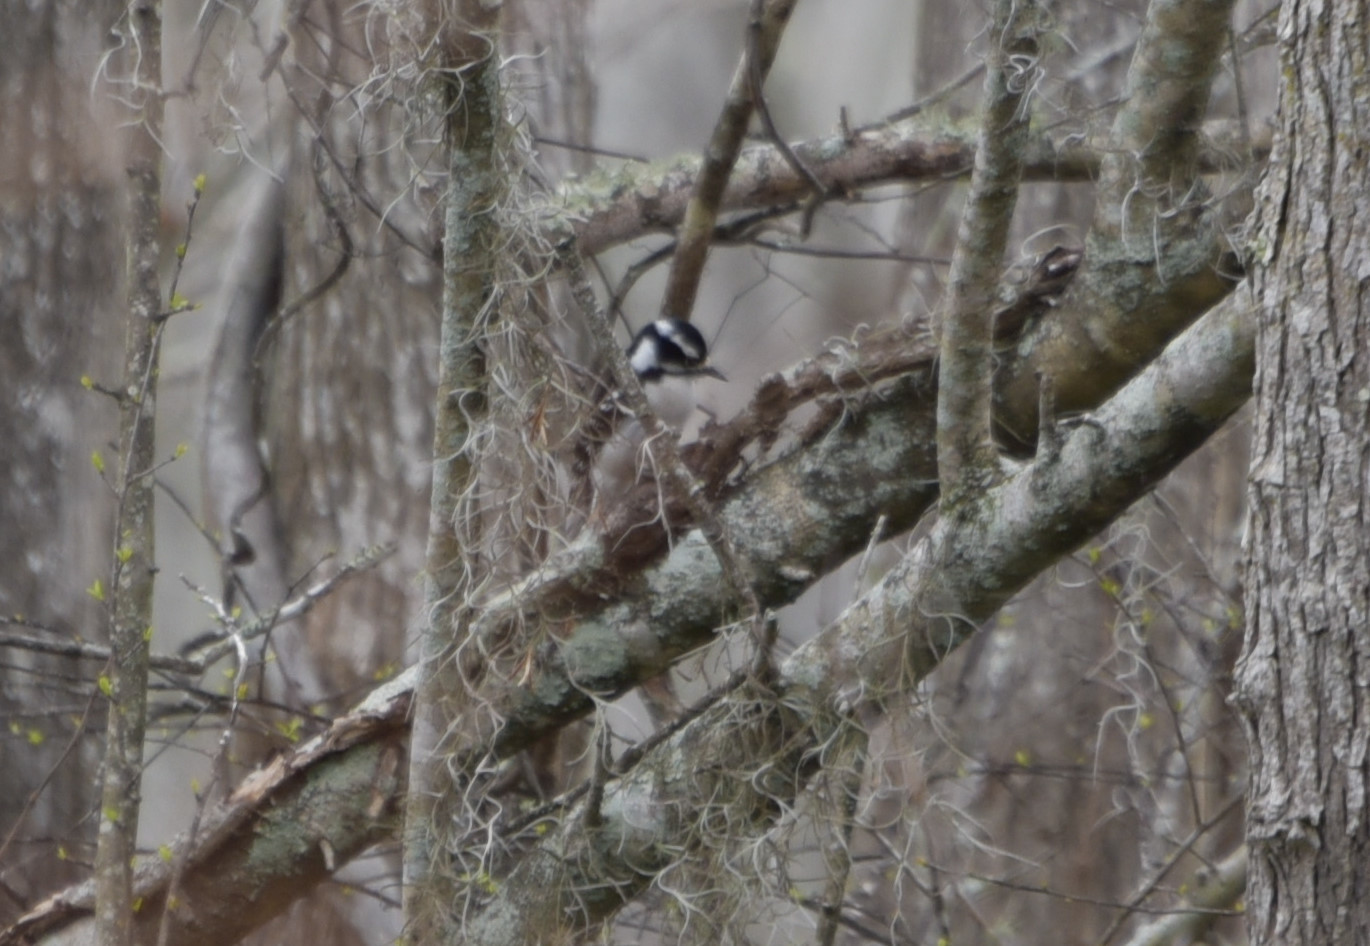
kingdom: Animalia
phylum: Chordata
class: Aves
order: Piciformes
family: Picidae
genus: Dryobates
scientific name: Dryobates pubescens
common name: Downy woodpecker
